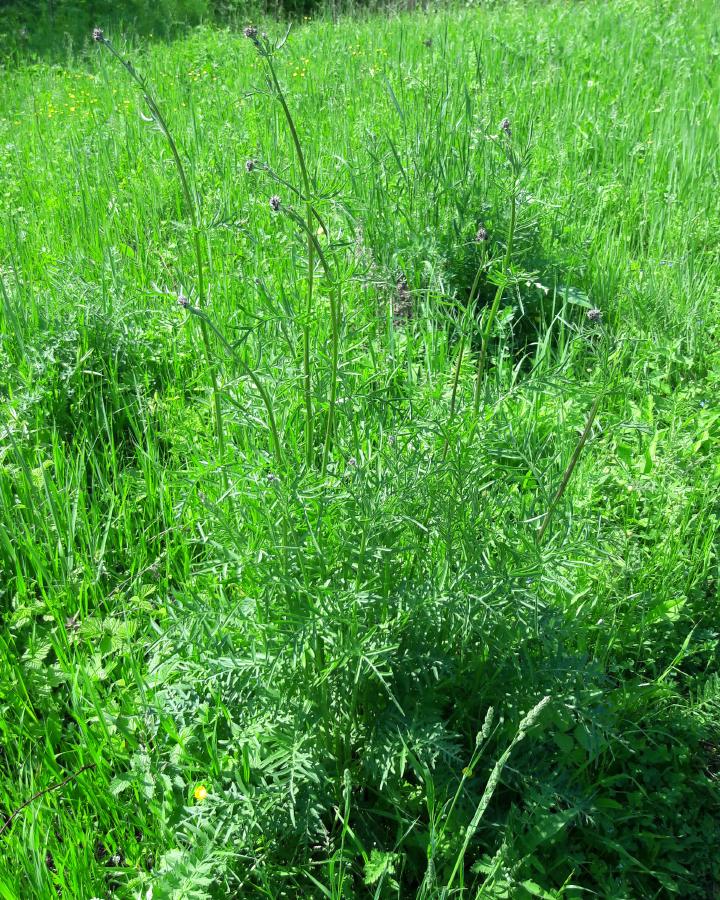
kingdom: Plantae
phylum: Tracheophyta
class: Magnoliopsida
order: Asterales
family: Asteraceae
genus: Centaurea
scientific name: Centaurea scabiosa
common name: Greater knapweed
